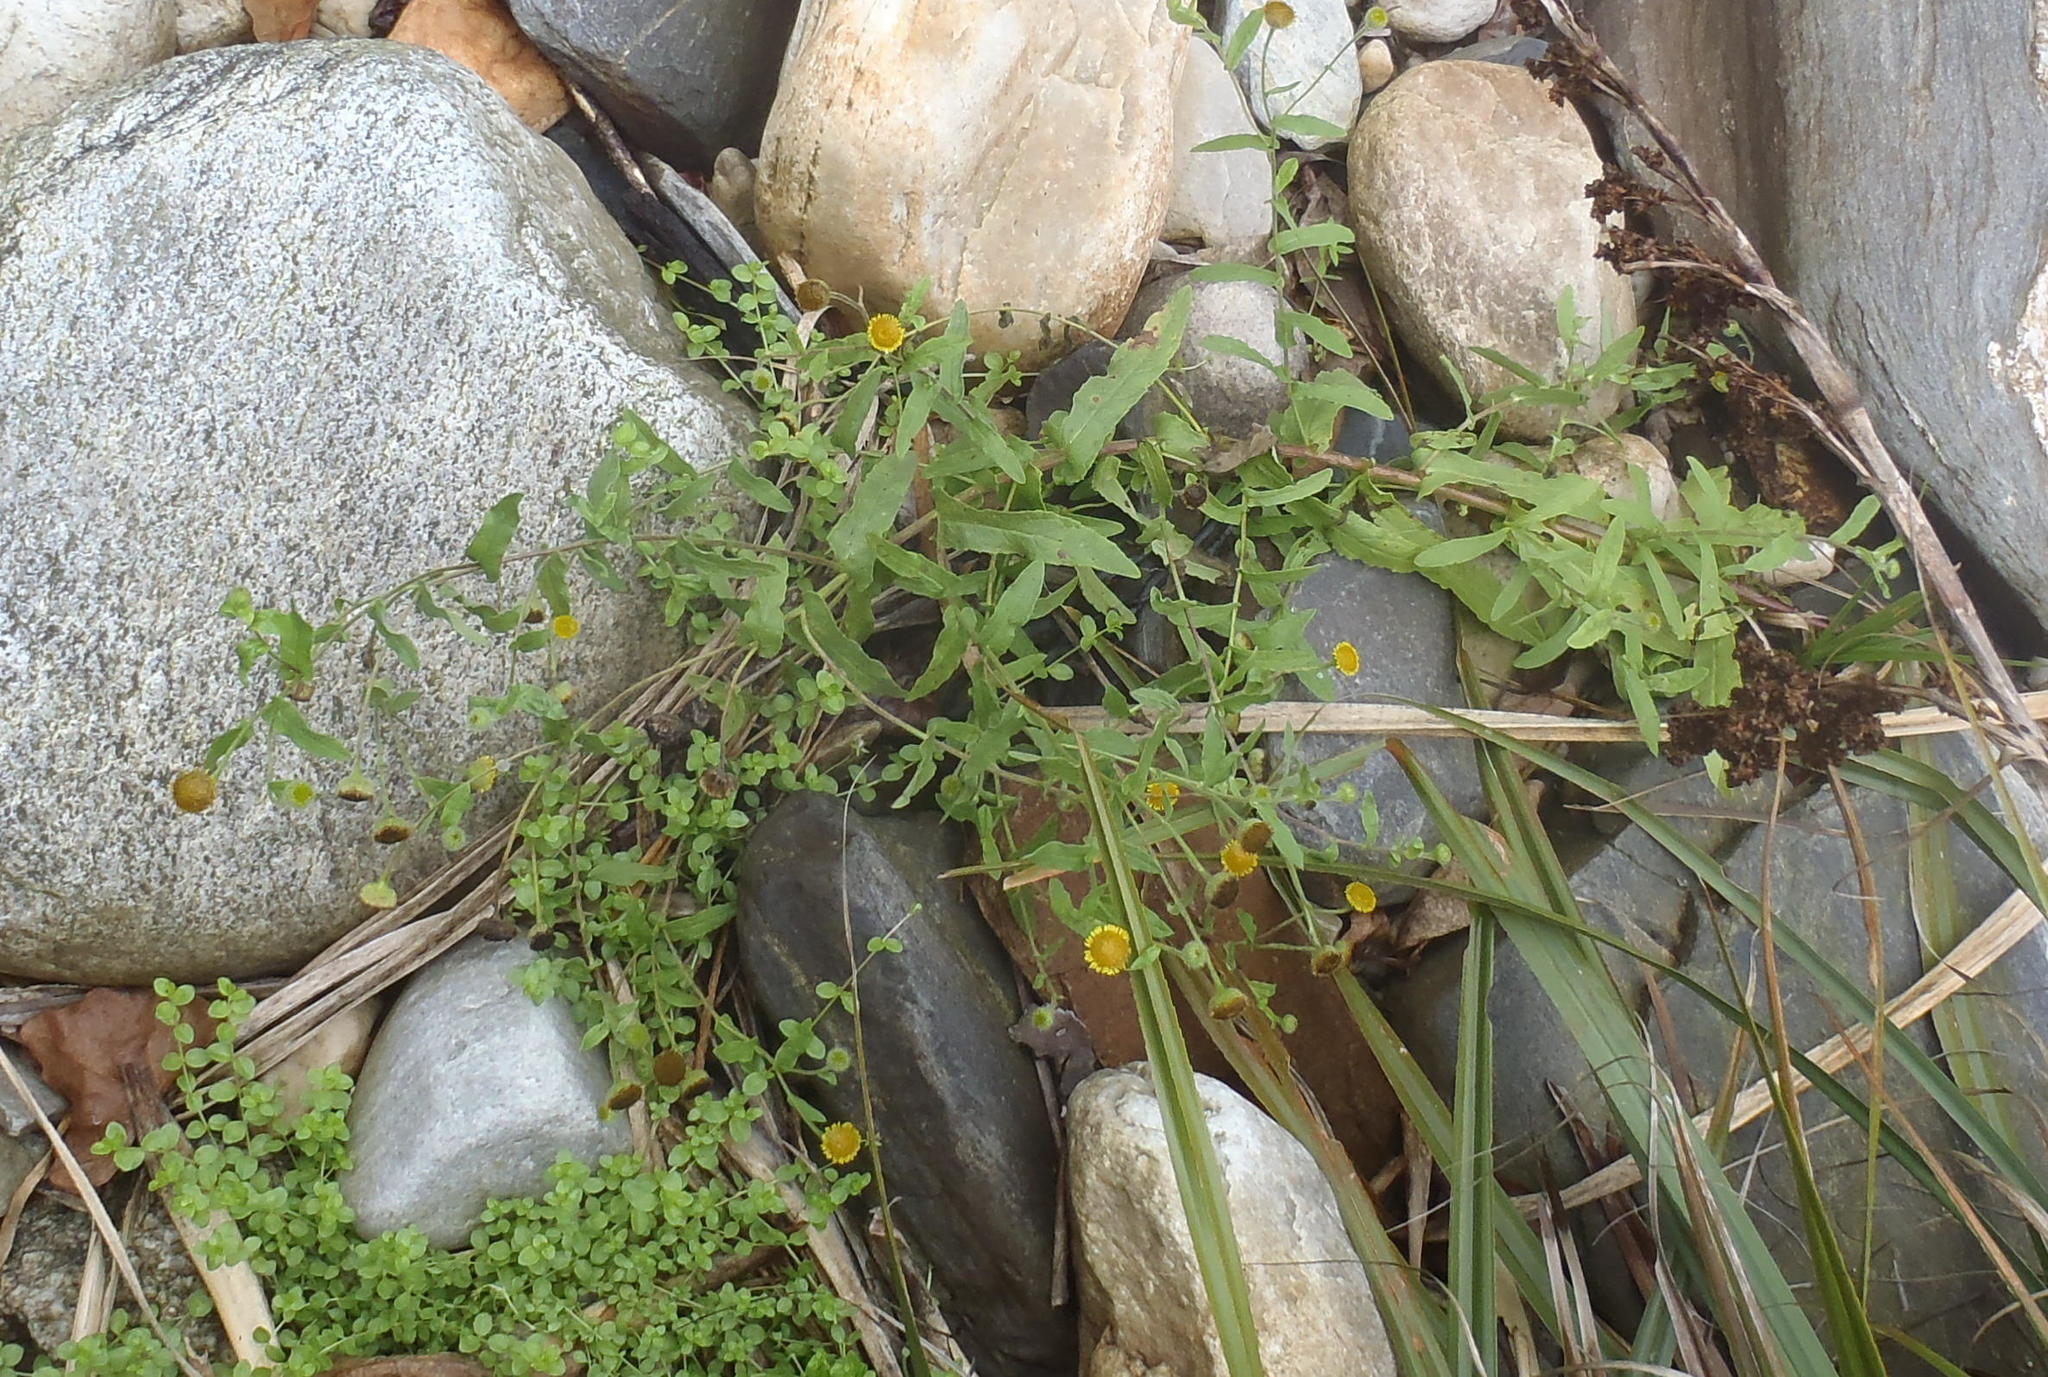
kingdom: Plantae
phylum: Tracheophyta
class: Magnoliopsida
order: Asterales
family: Asteraceae
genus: Pulicaria
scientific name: Pulicaria scabra
